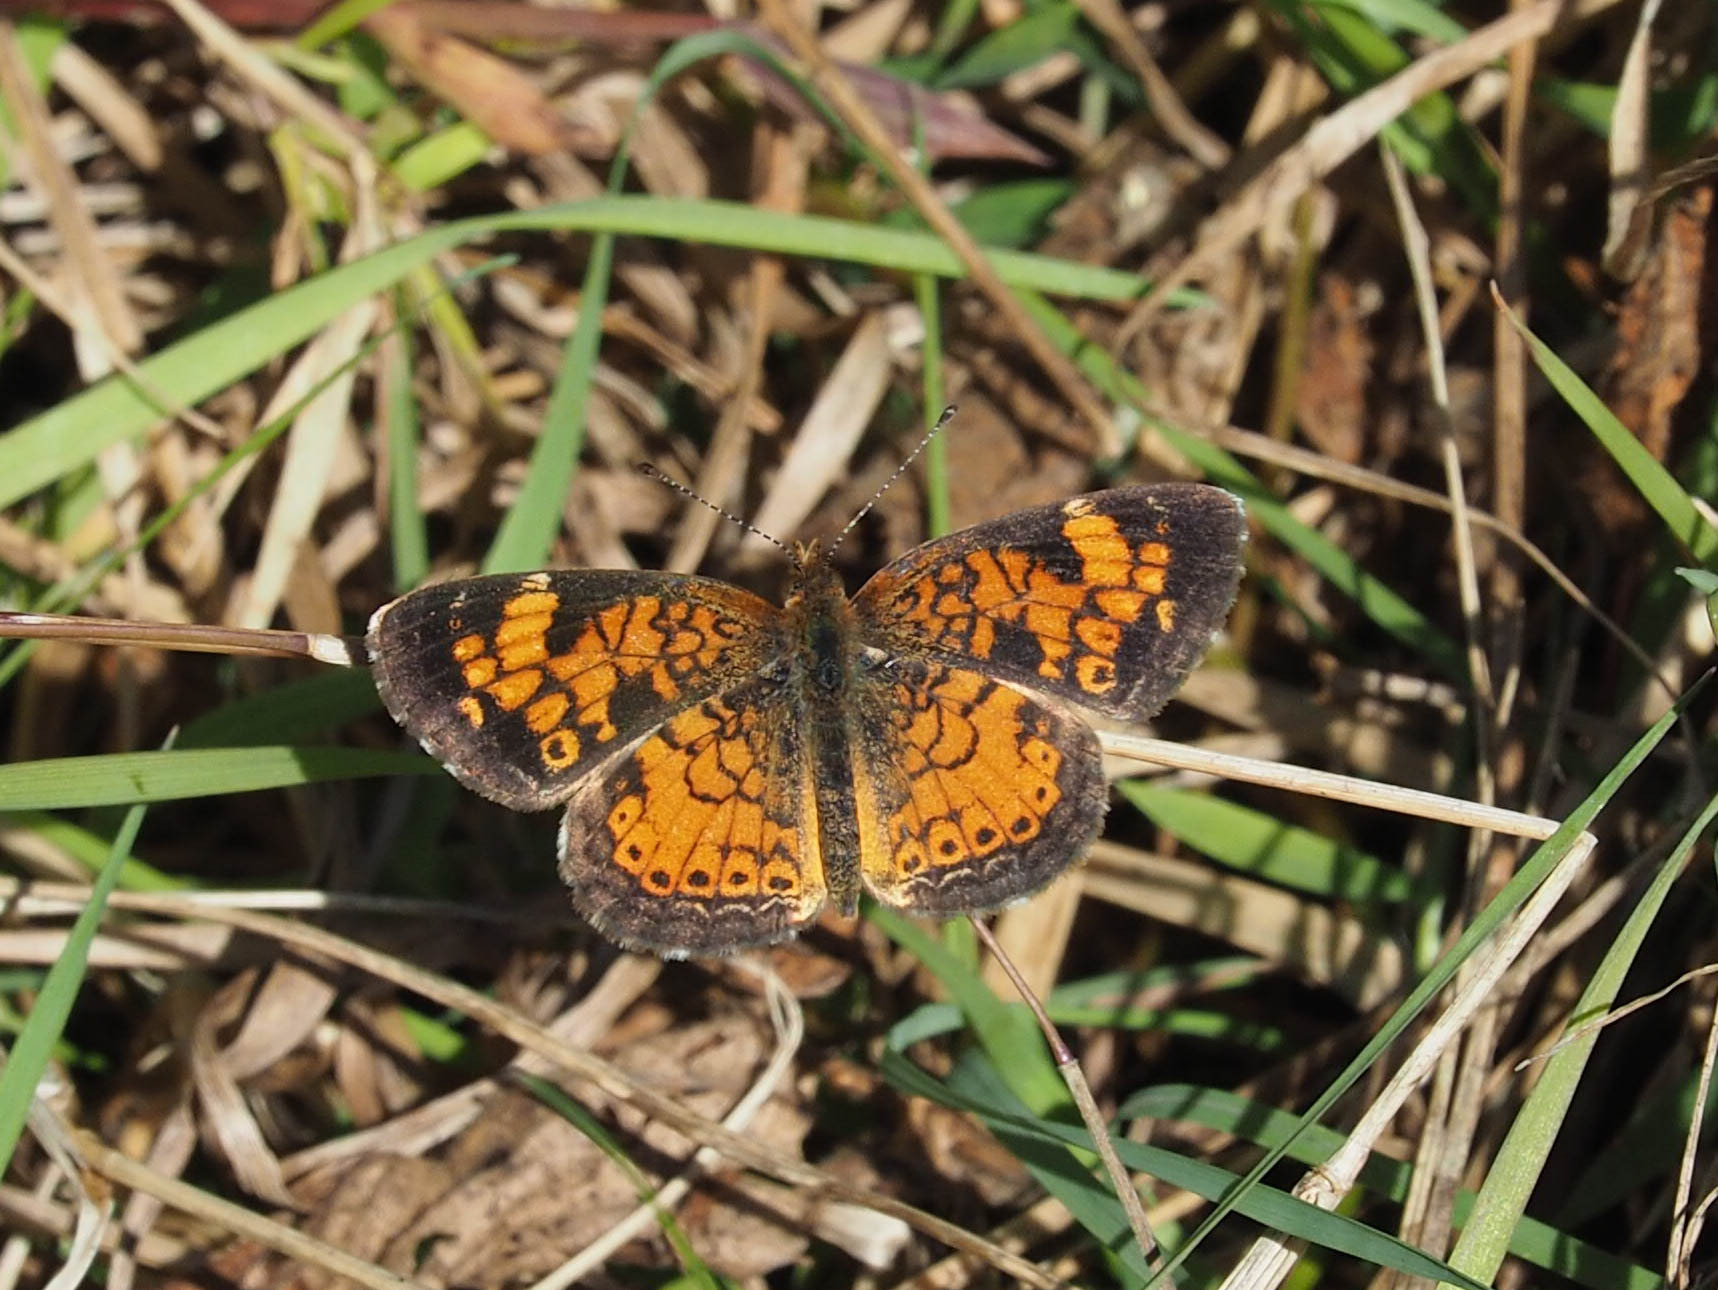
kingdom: Animalia
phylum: Arthropoda
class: Insecta
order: Lepidoptera
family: Nymphalidae
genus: Phyciodes
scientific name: Phyciodes tharos
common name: Pearl crescent
